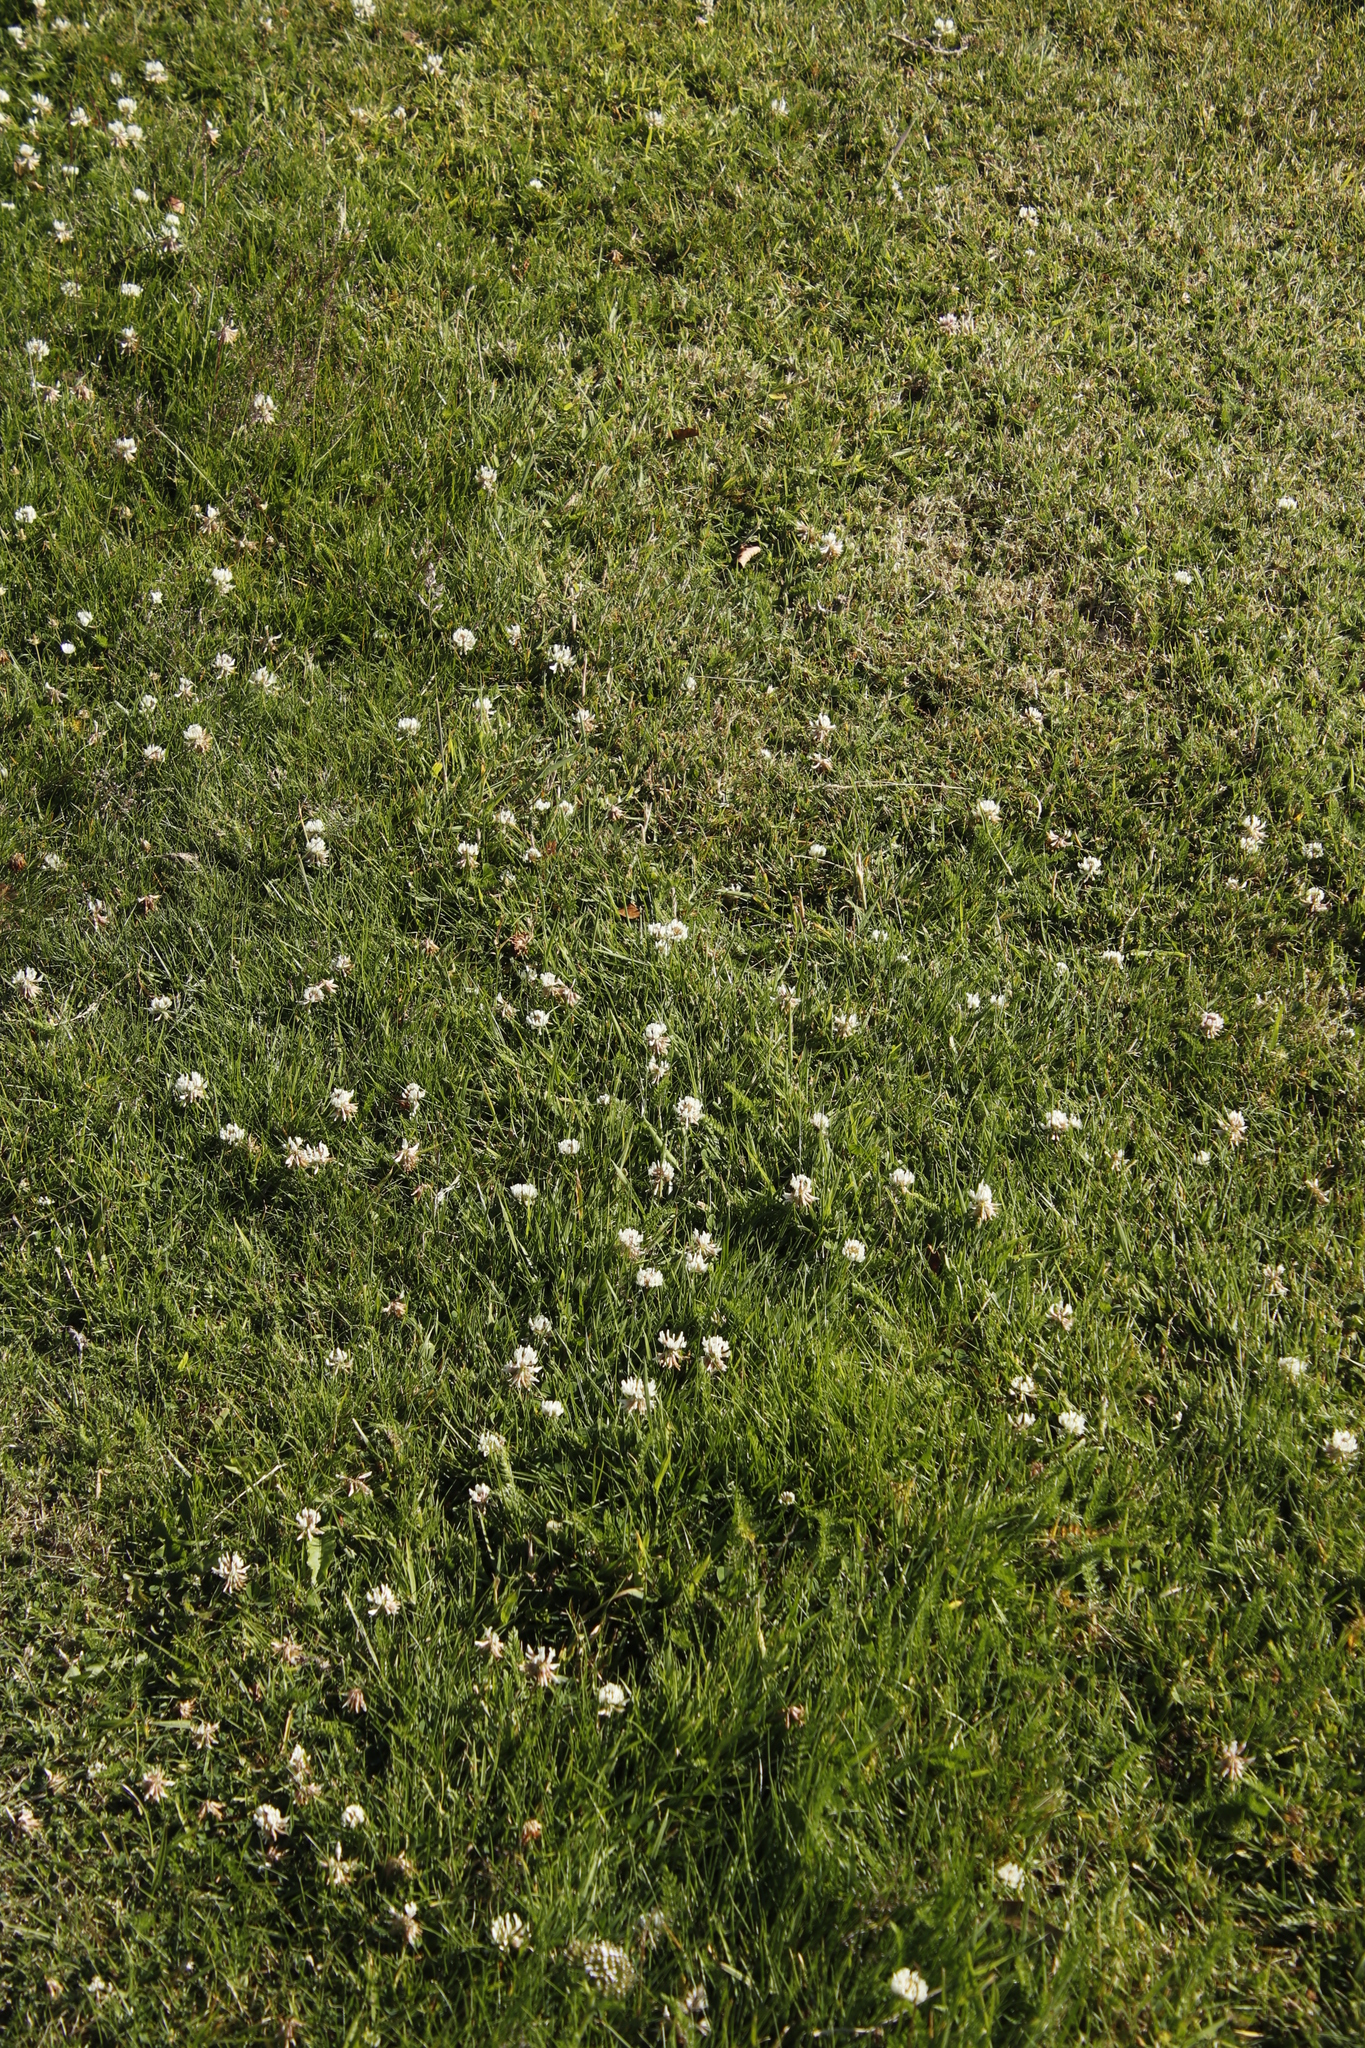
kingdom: Plantae
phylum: Tracheophyta
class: Magnoliopsida
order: Fabales
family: Fabaceae
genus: Trifolium
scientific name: Trifolium repens
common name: White clover
